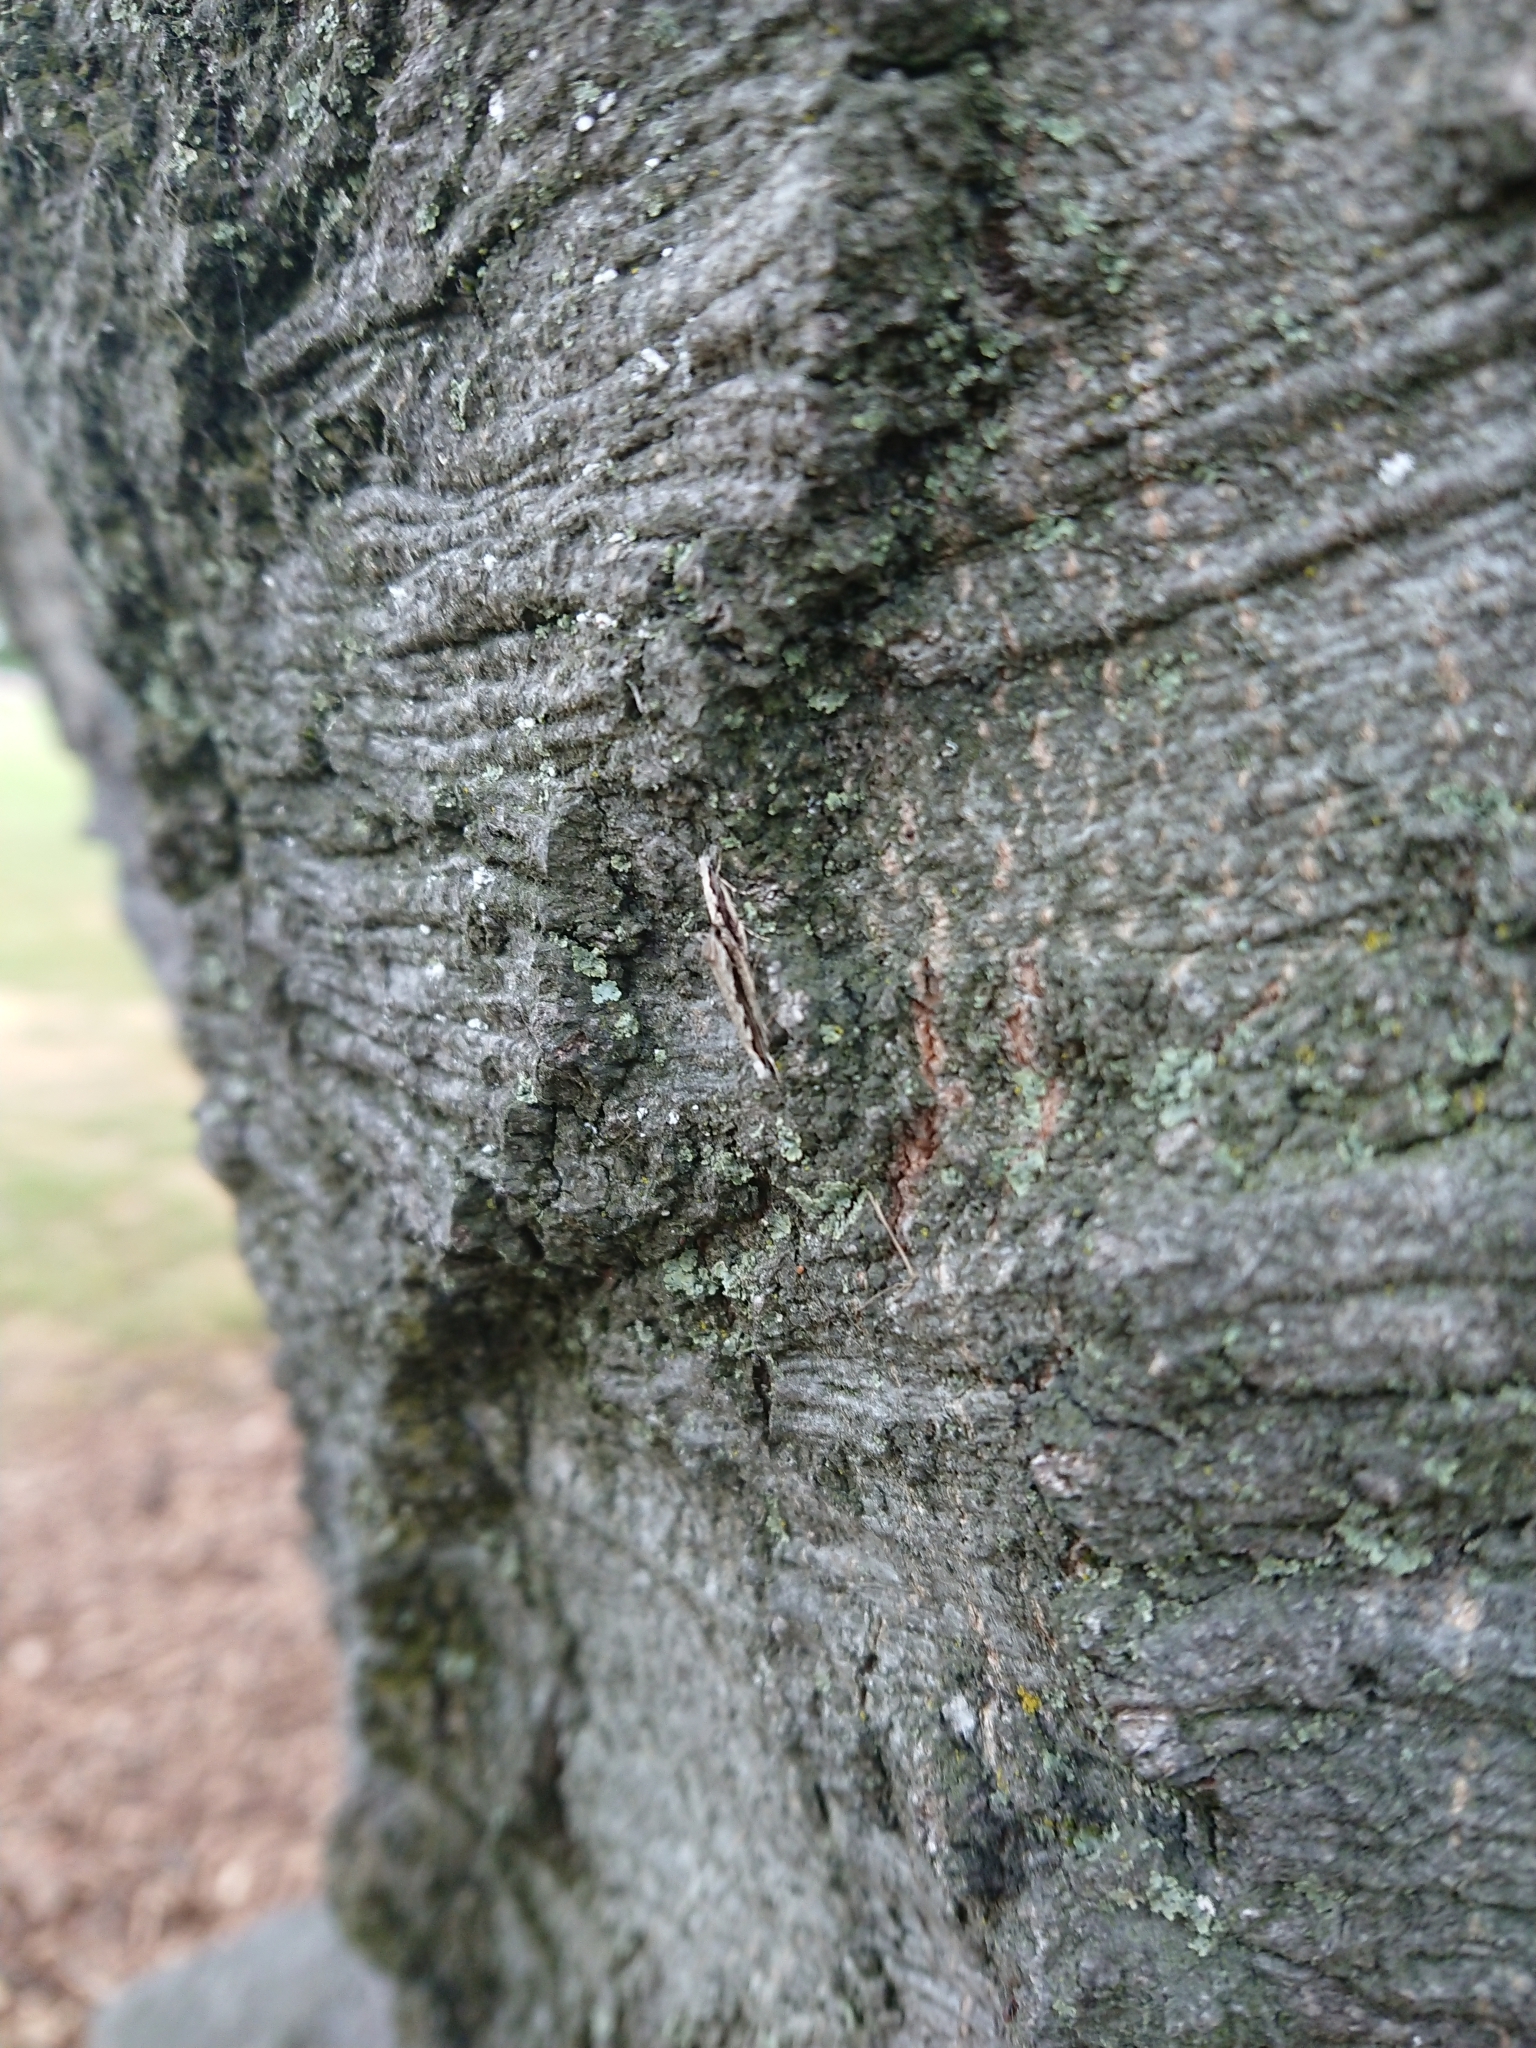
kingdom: Animalia
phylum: Arthropoda
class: Insecta
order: Lepidoptera
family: Tineidae
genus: Erechthias
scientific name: Erechthias fulguritella
